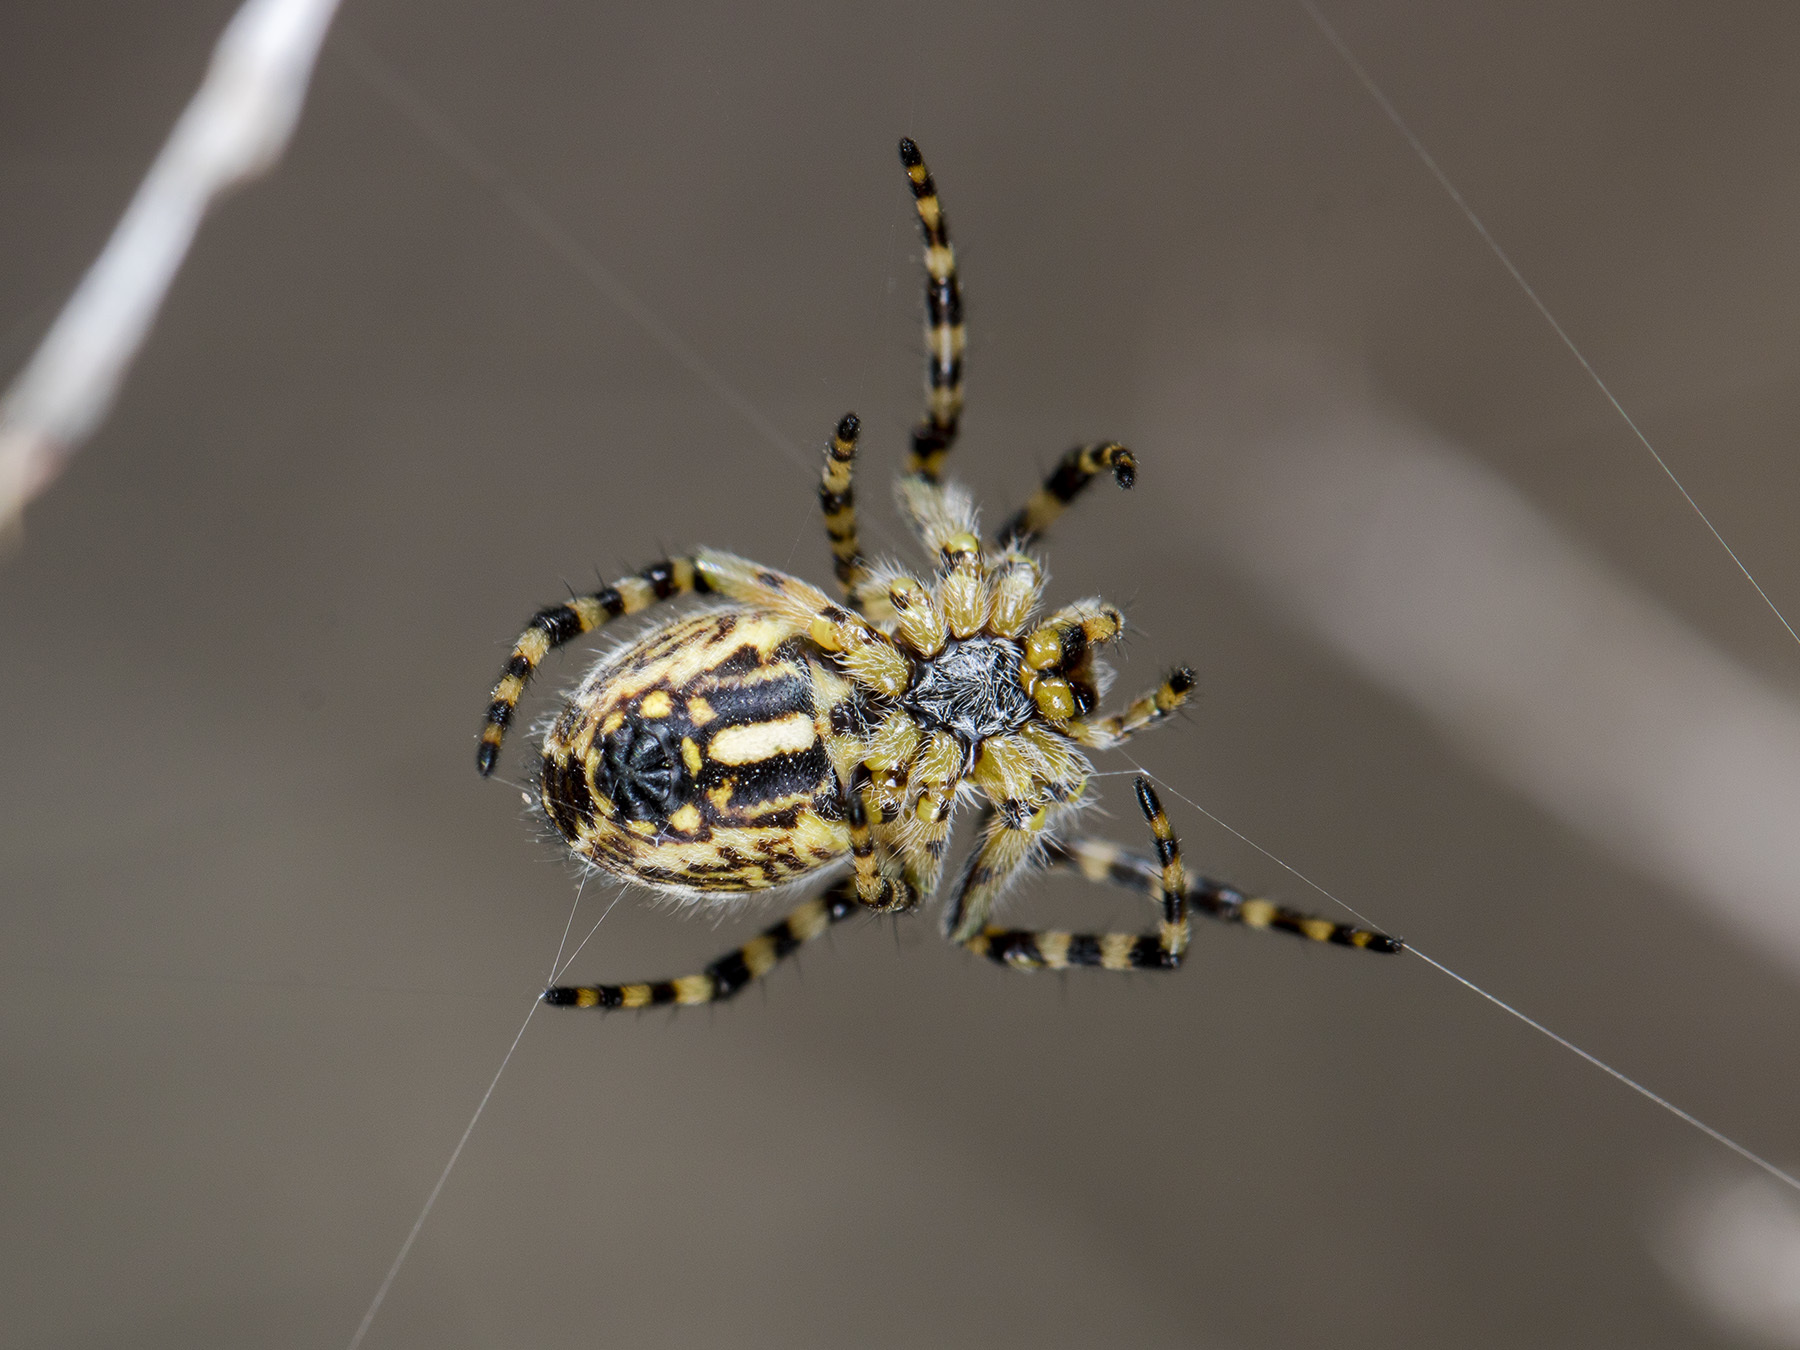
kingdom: Animalia
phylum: Arthropoda
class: Arachnida
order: Araneae
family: Araneidae
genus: Aculepeira
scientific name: Aculepeira armida
